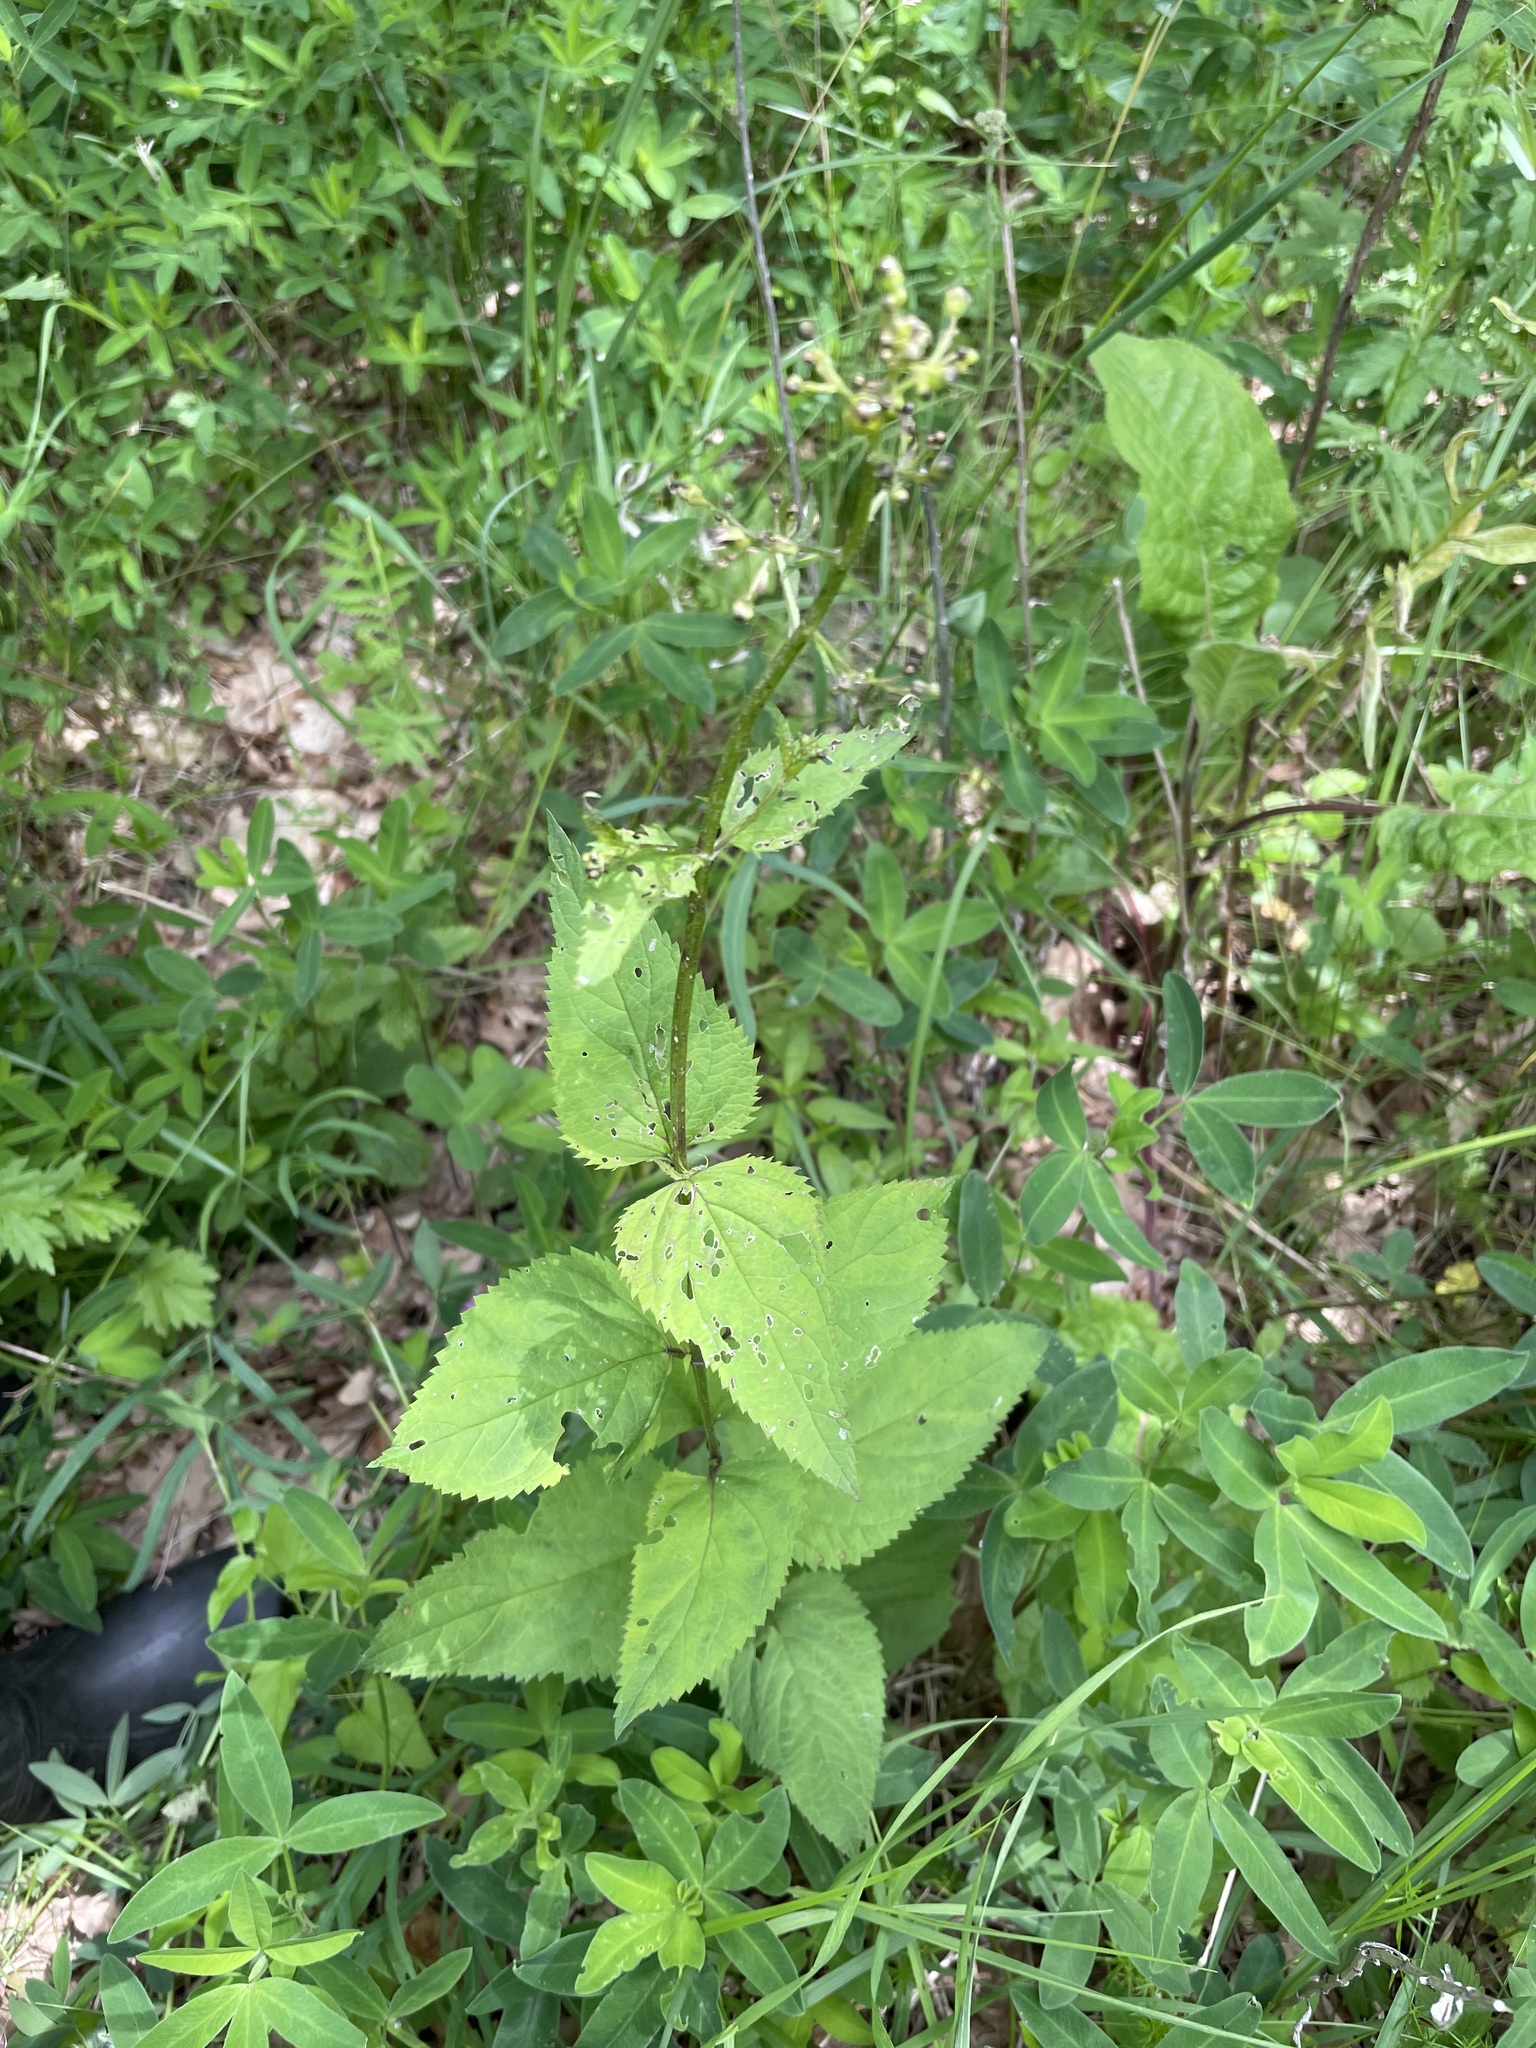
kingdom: Plantae
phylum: Tracheophyta
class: Magnoliopsida
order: Lamiales
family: Scrophulariaceae
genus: Scrophularia
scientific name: Scrophularia nodosa
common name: Common figwort
